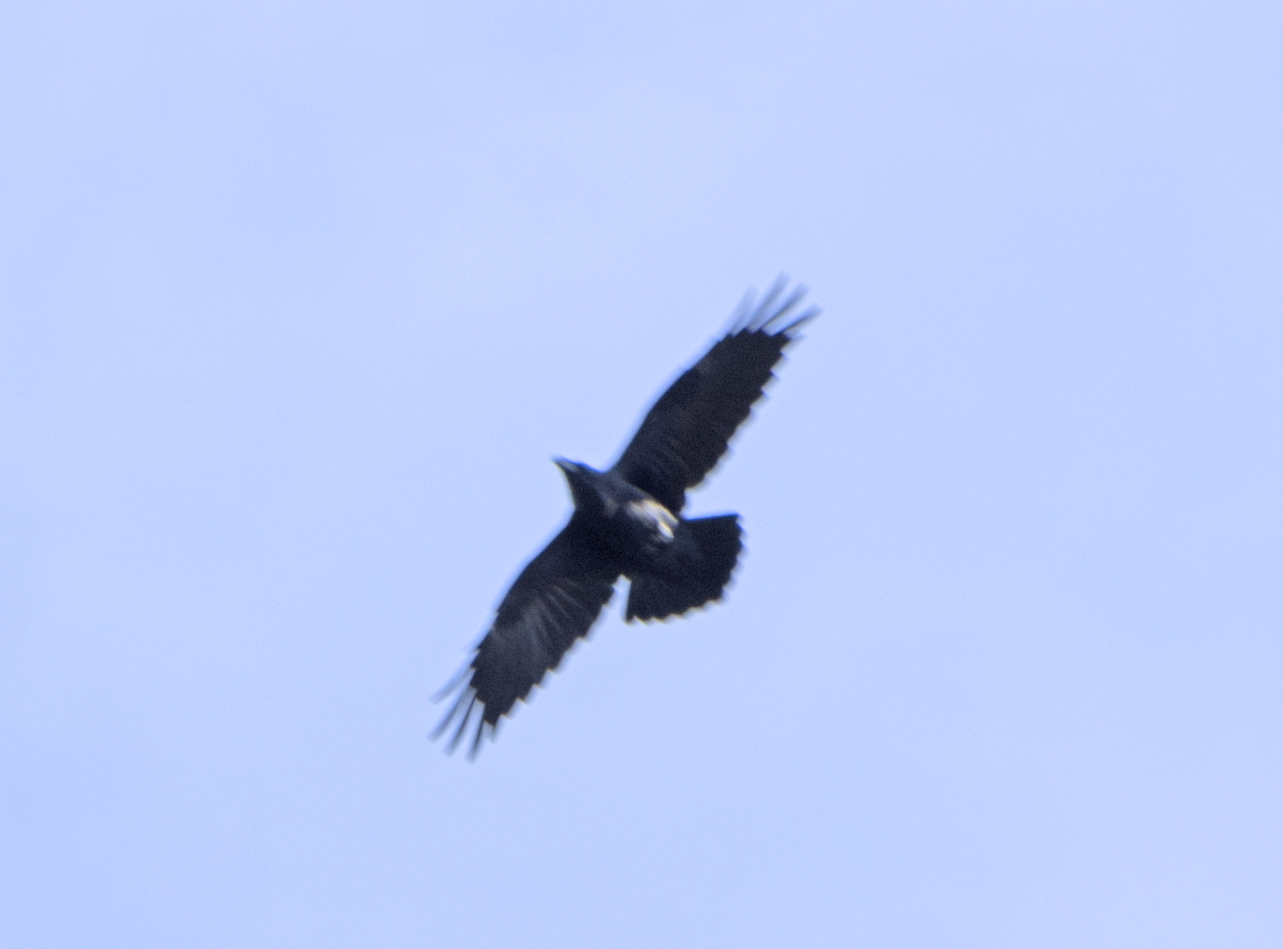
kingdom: Animalia
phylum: Chordata
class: Aves
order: Passeriformes
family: Corvidae
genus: Corvus
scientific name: Corvus corax
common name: Common raven
